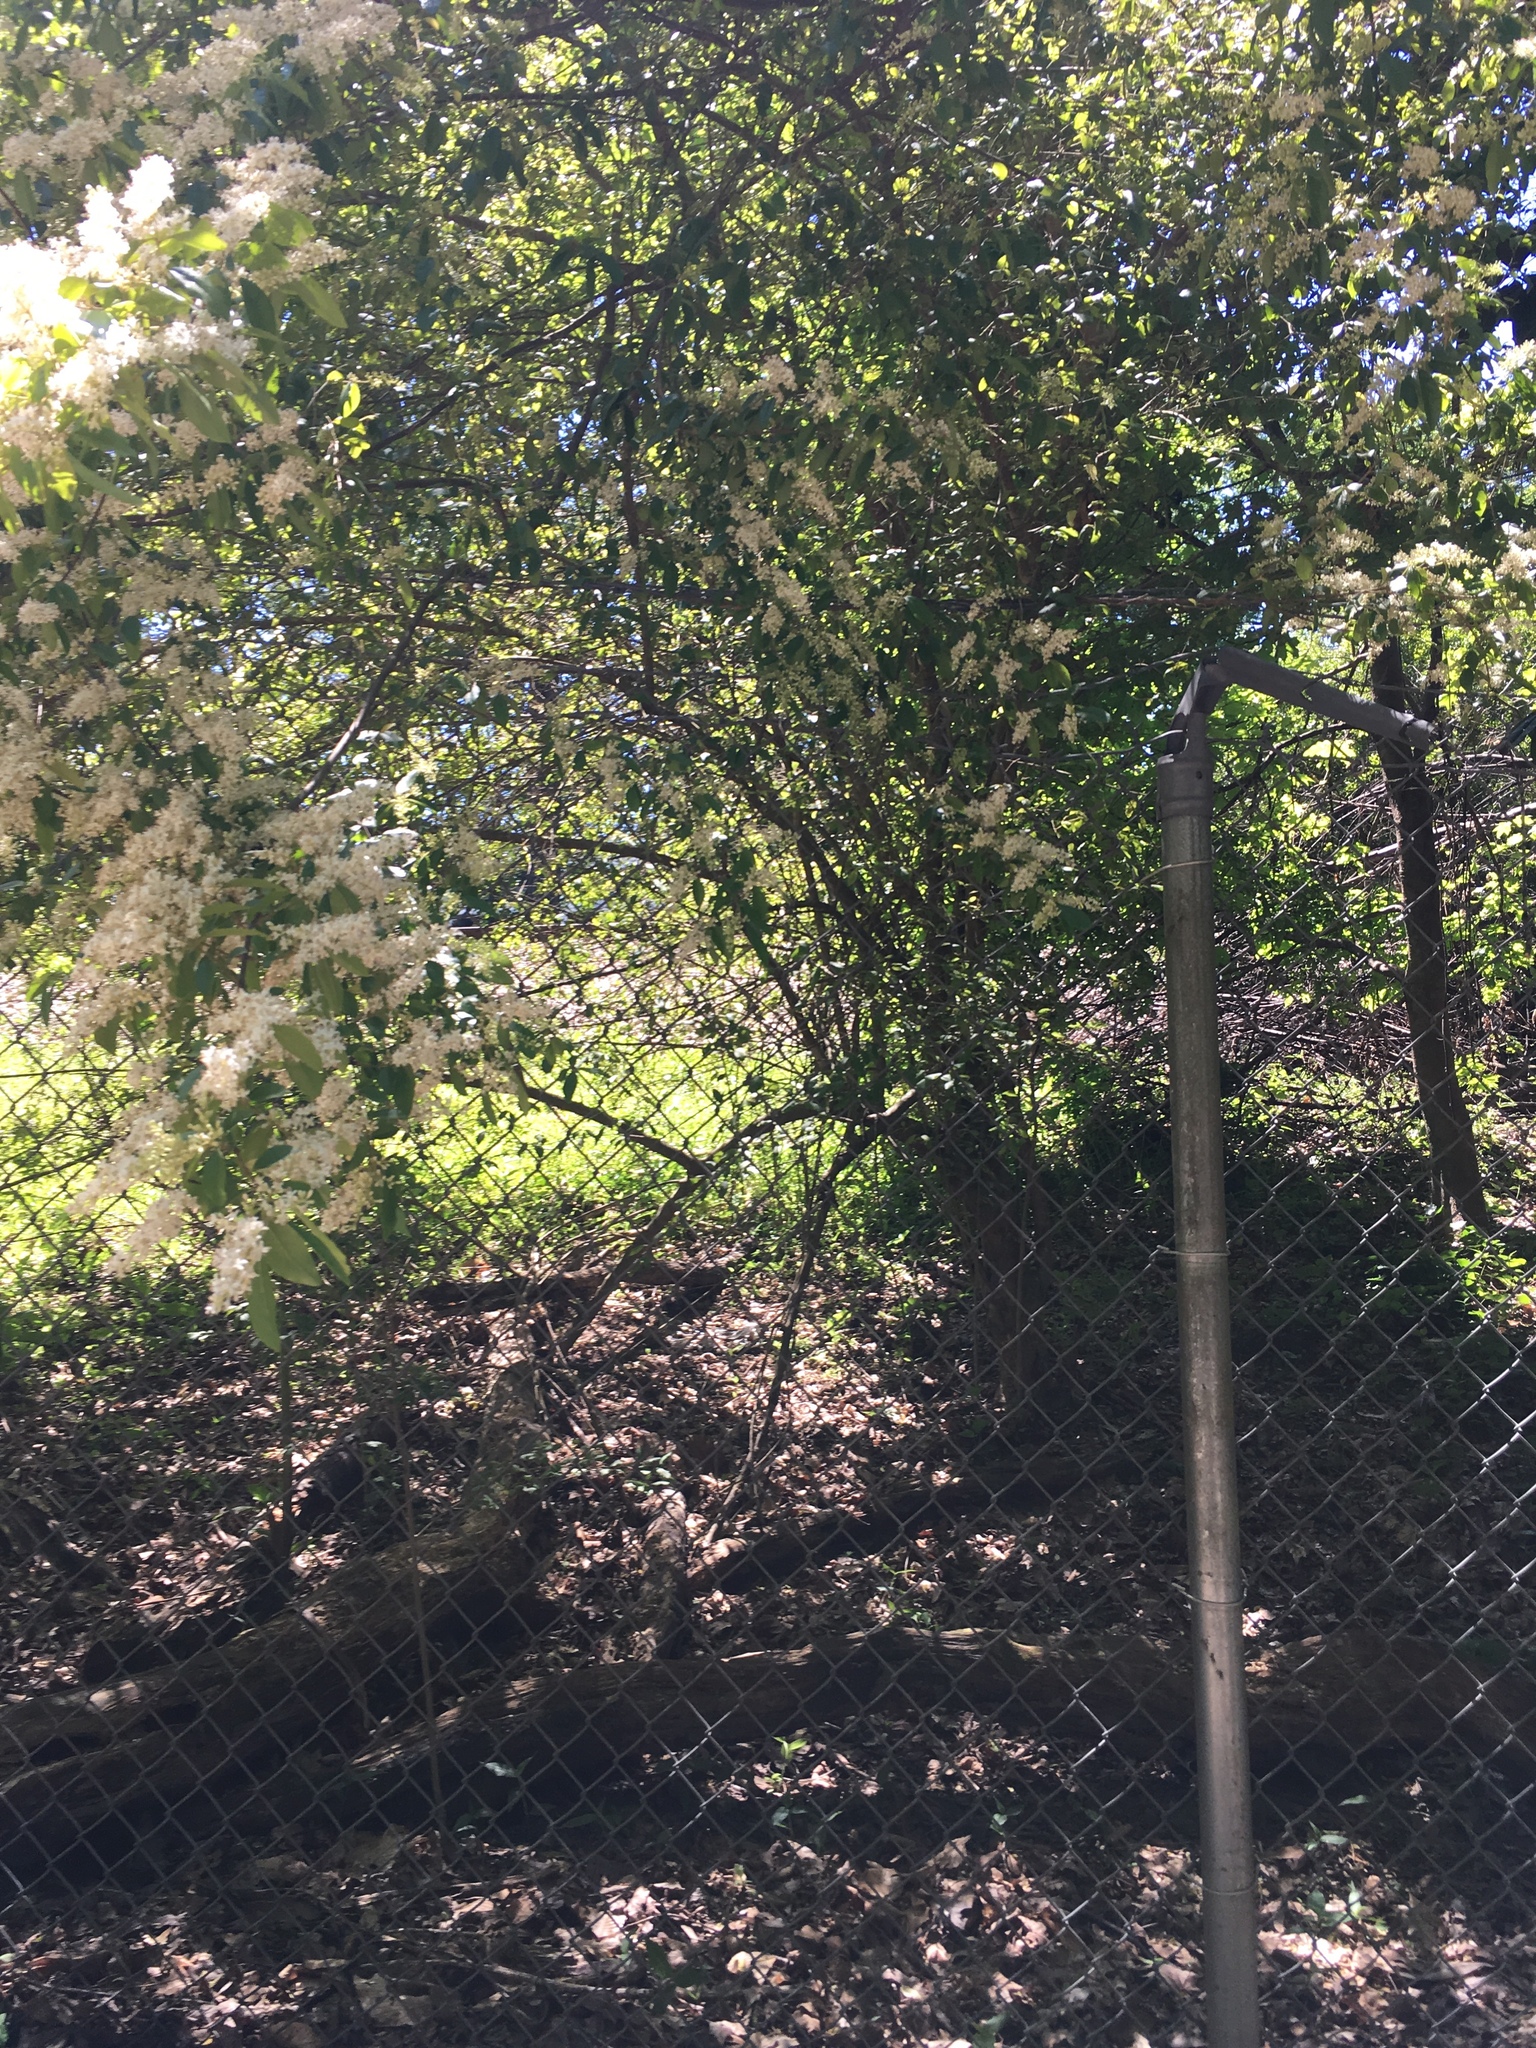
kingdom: Plantae
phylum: Tracheophyta
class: Magnoliopsida
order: Lamiales
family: Oleaceae
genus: Ligustrum
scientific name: Ligustrum sinense
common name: Chinese privet
